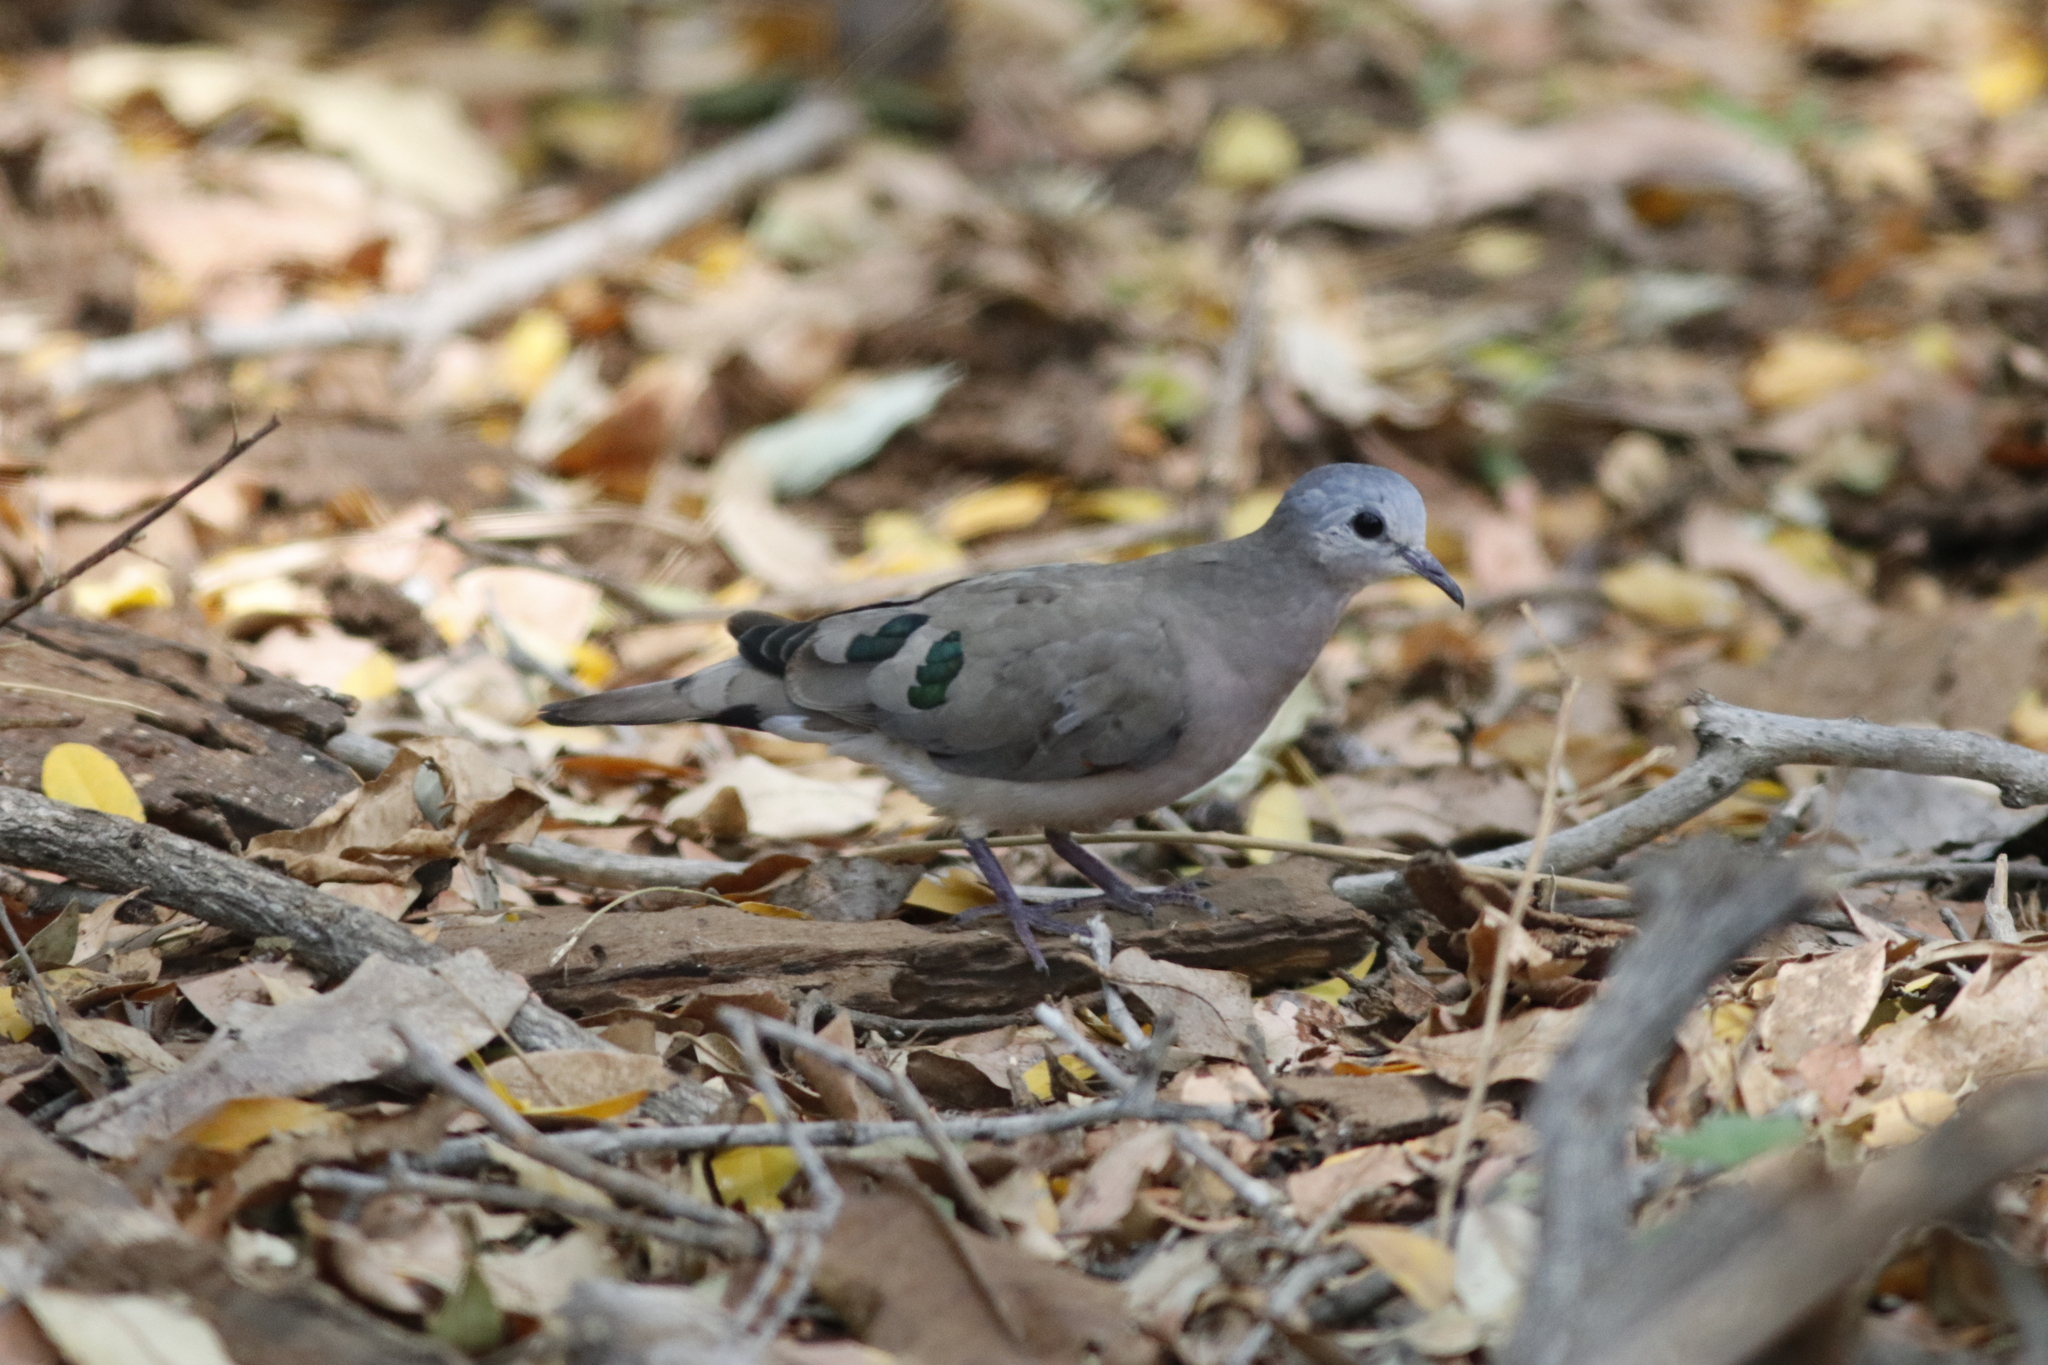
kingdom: Animalia
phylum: Chordata
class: Aves
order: Columbiformes
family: Columbidae
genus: Turtur
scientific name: Turtur chalcospilos
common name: Emerald-spotted wood dove
